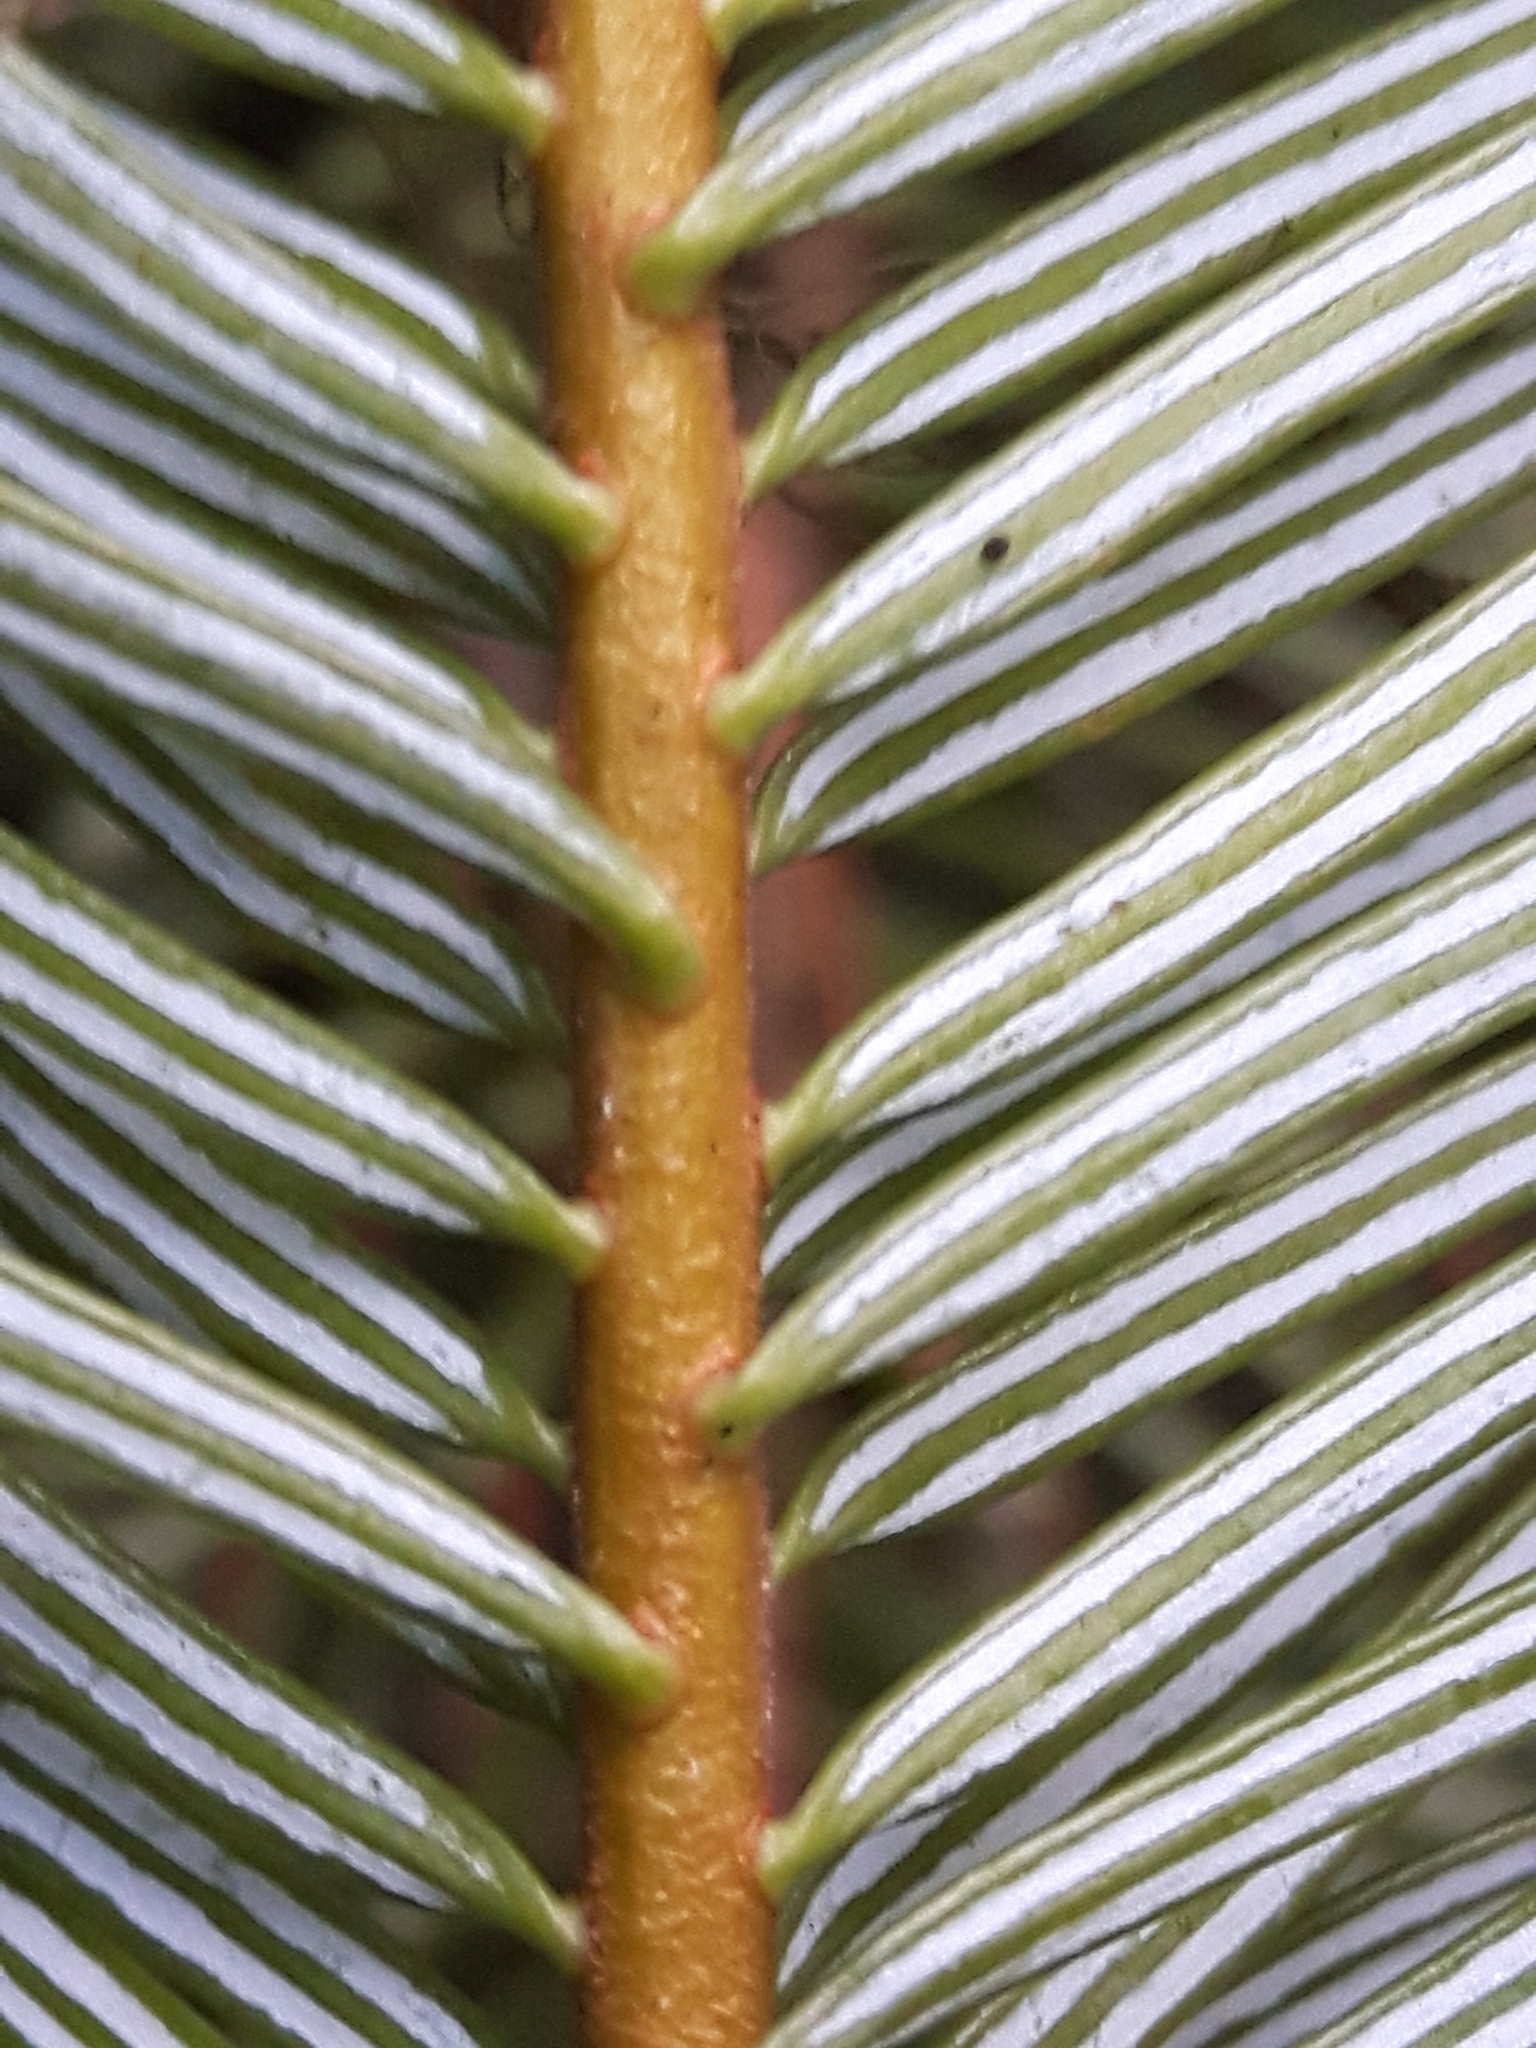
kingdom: Plantae
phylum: Tracheophyta
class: Pinopsida
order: Pinales
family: Pinaceae
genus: Abies
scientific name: Abies grandis
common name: Giant fir
